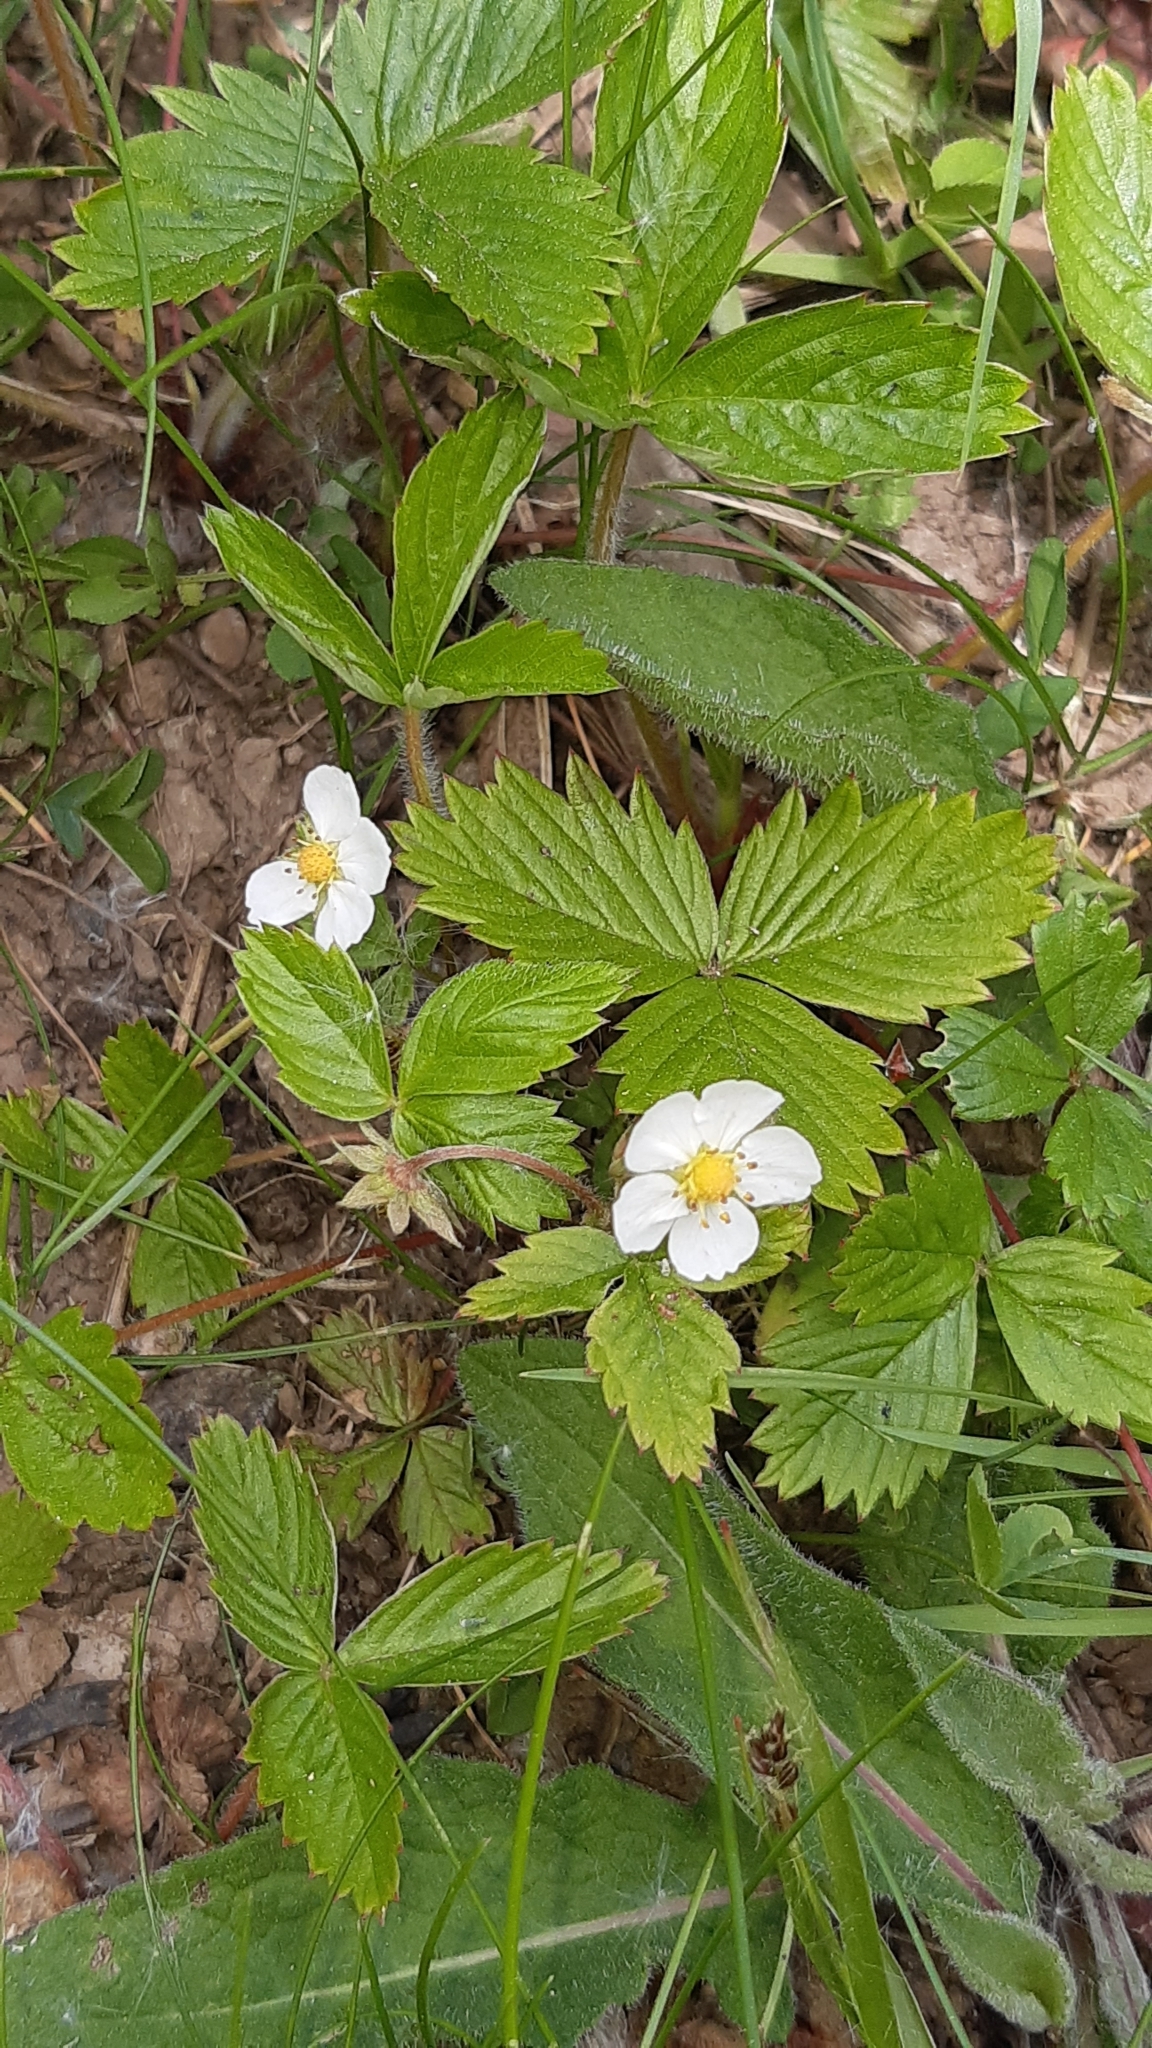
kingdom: Plantae
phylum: Tracheophyta
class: Magnoliopsida
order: Rosales
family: Rosaceae
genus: Fragaria
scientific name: Fragaria vesca
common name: Wild strawberry
